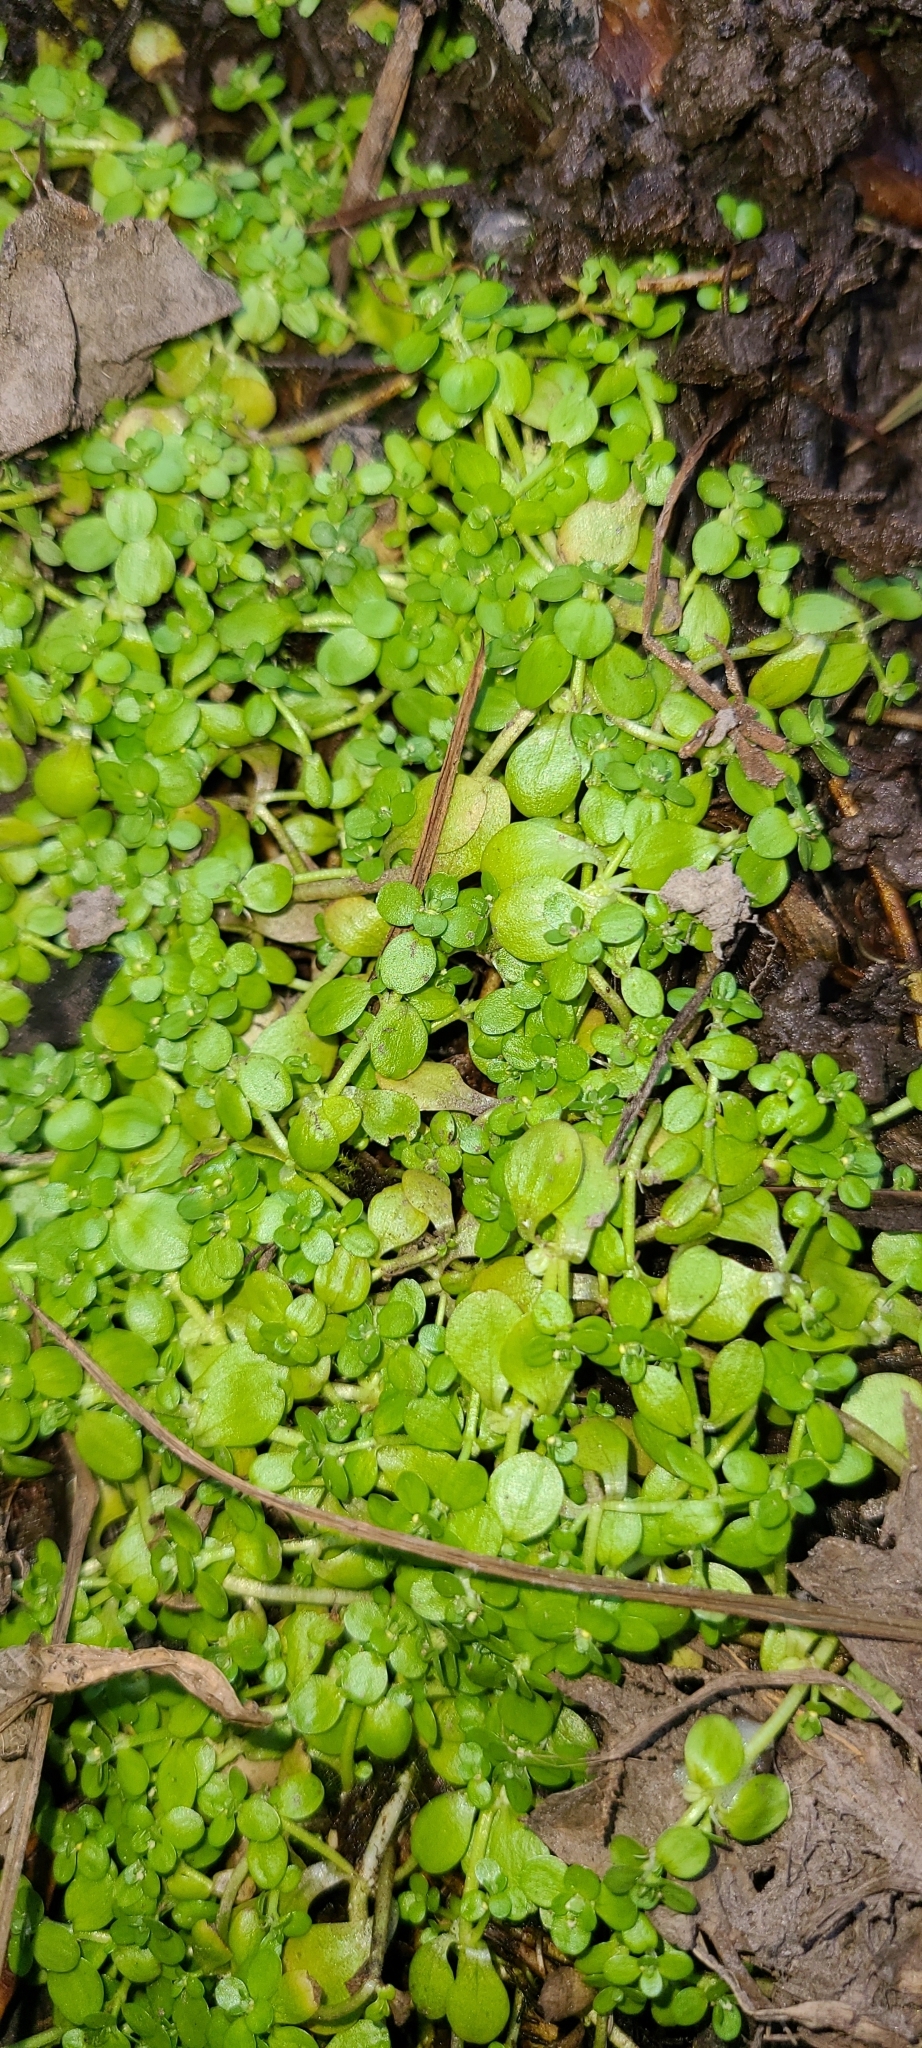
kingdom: Plantae
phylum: Tracheophyta
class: Magnoliopsida
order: Lamiales
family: Plantaginaceae
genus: Callitriche
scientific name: Callitriche stagnalis
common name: Common water-starwort
